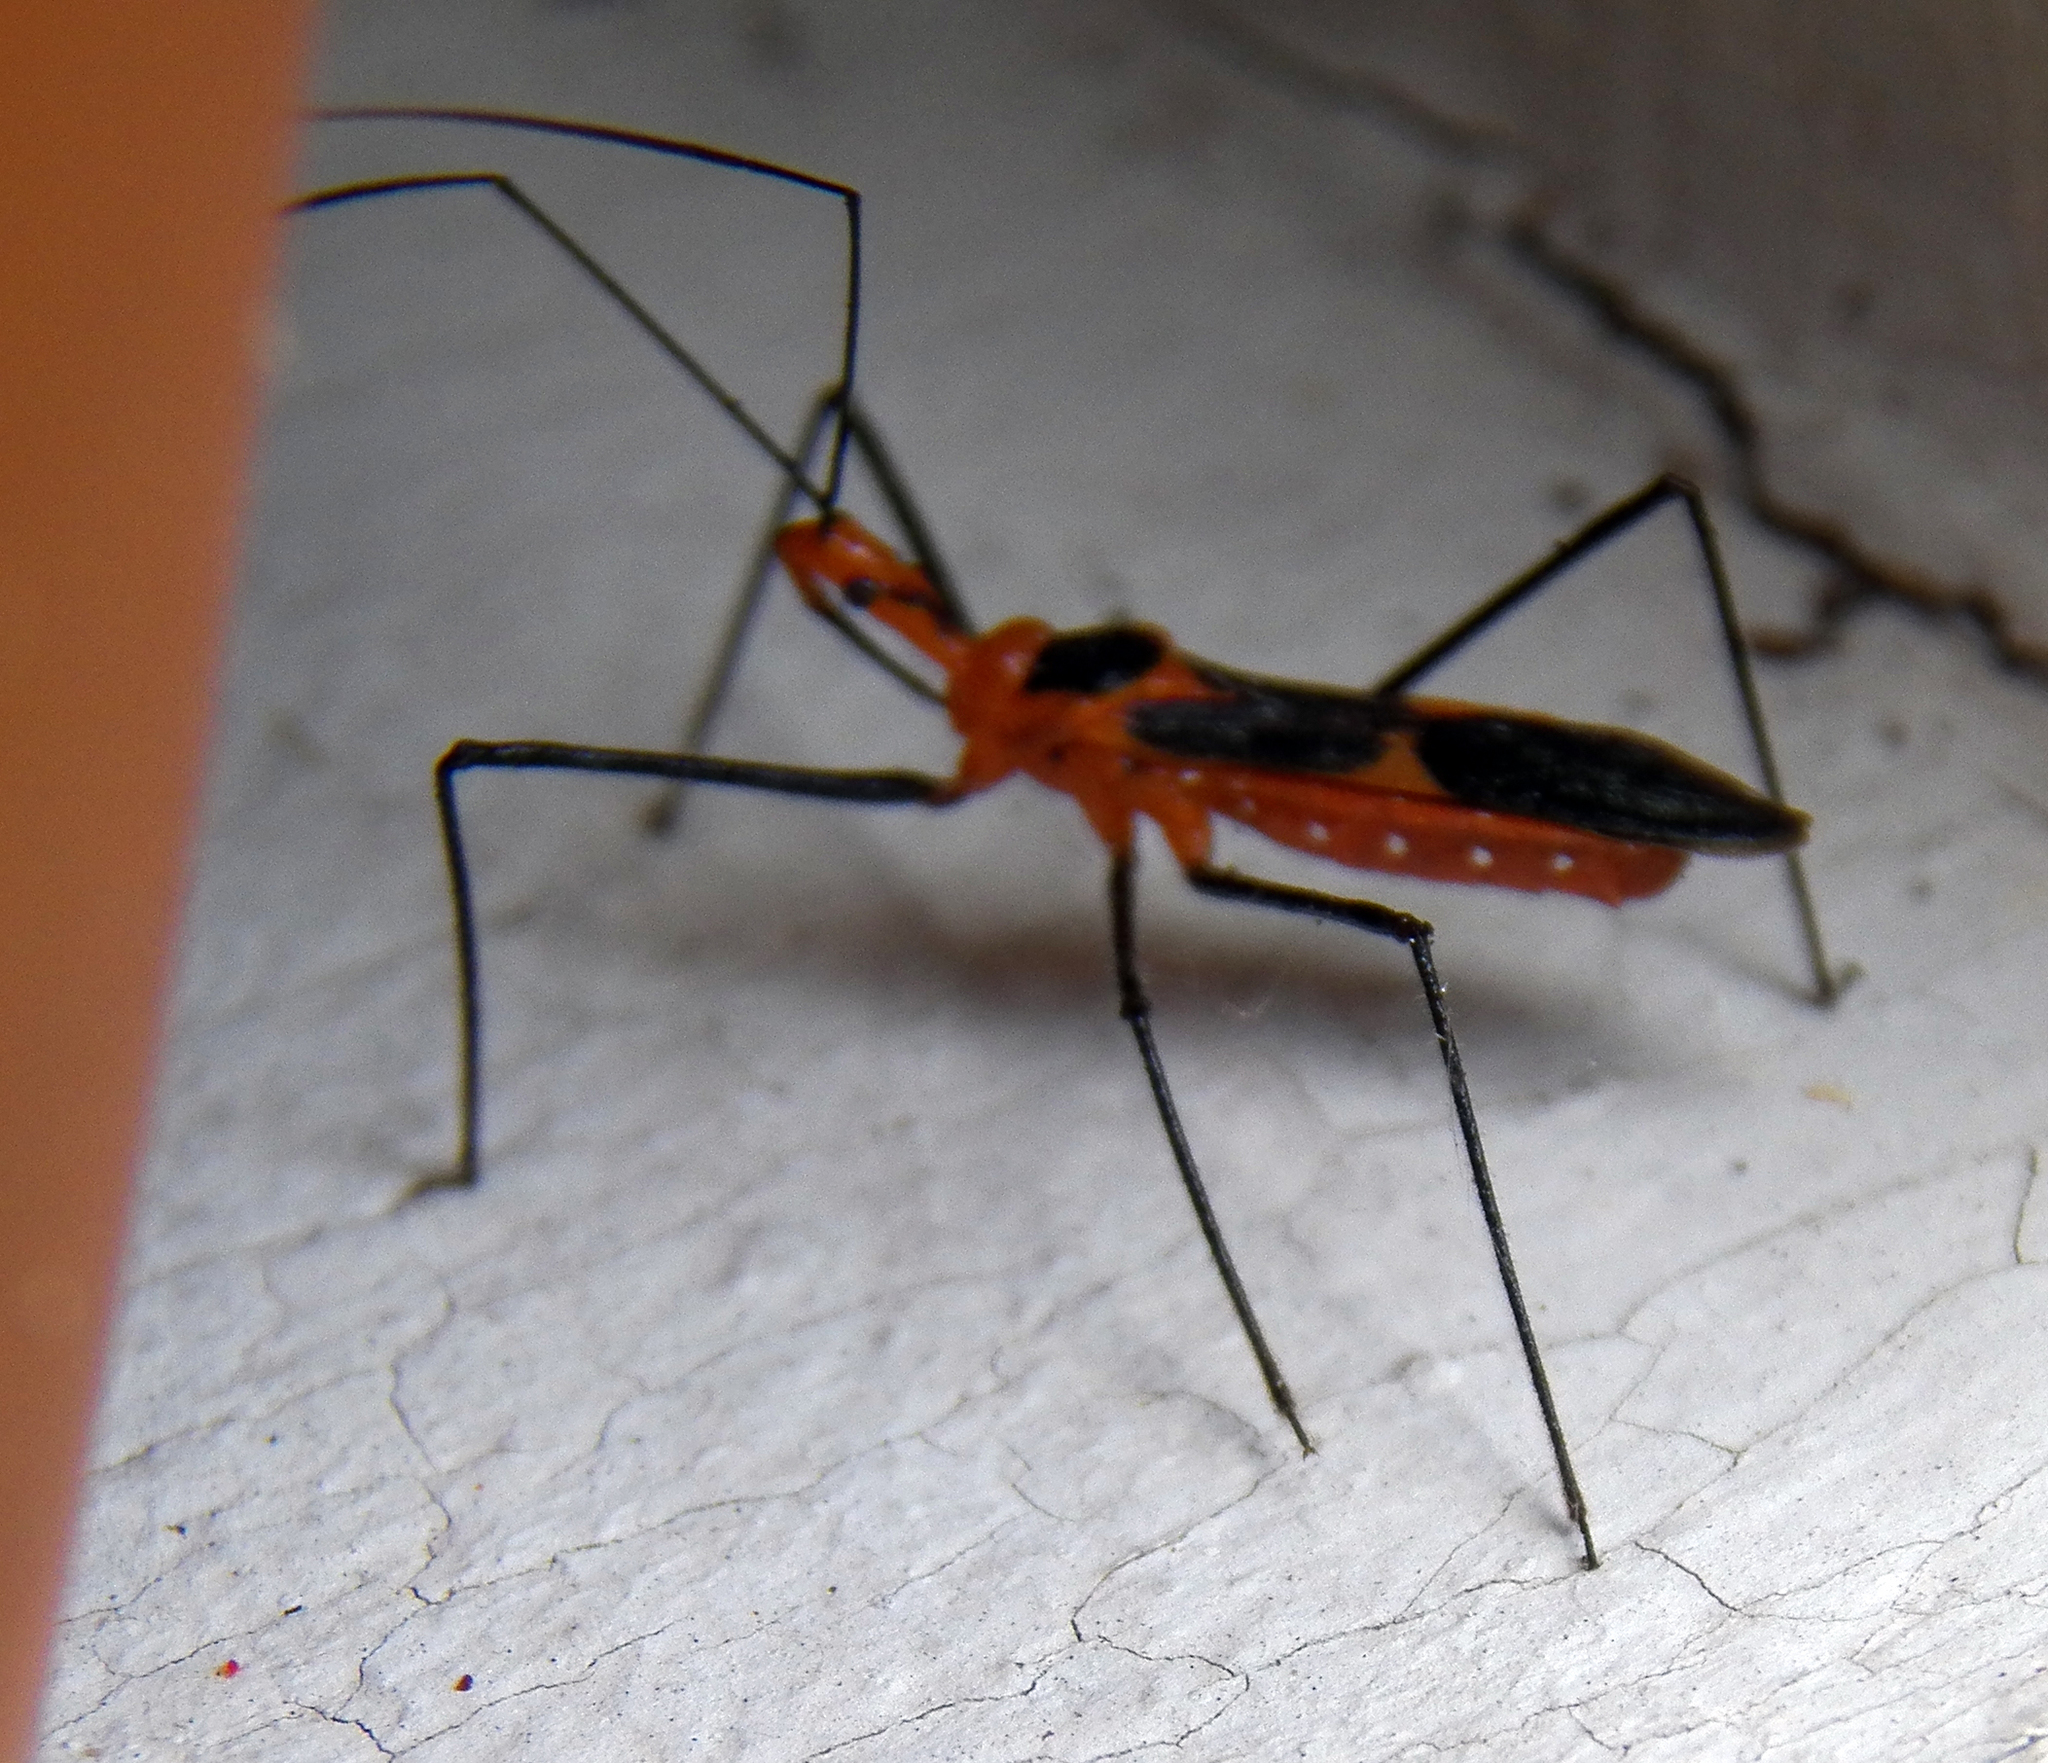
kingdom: Animalia
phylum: Arthropoda
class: Insecta
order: Hemiptera
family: Reduviidae
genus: Zelus
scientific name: Zelus longipes
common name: Milkweed assassin bug
